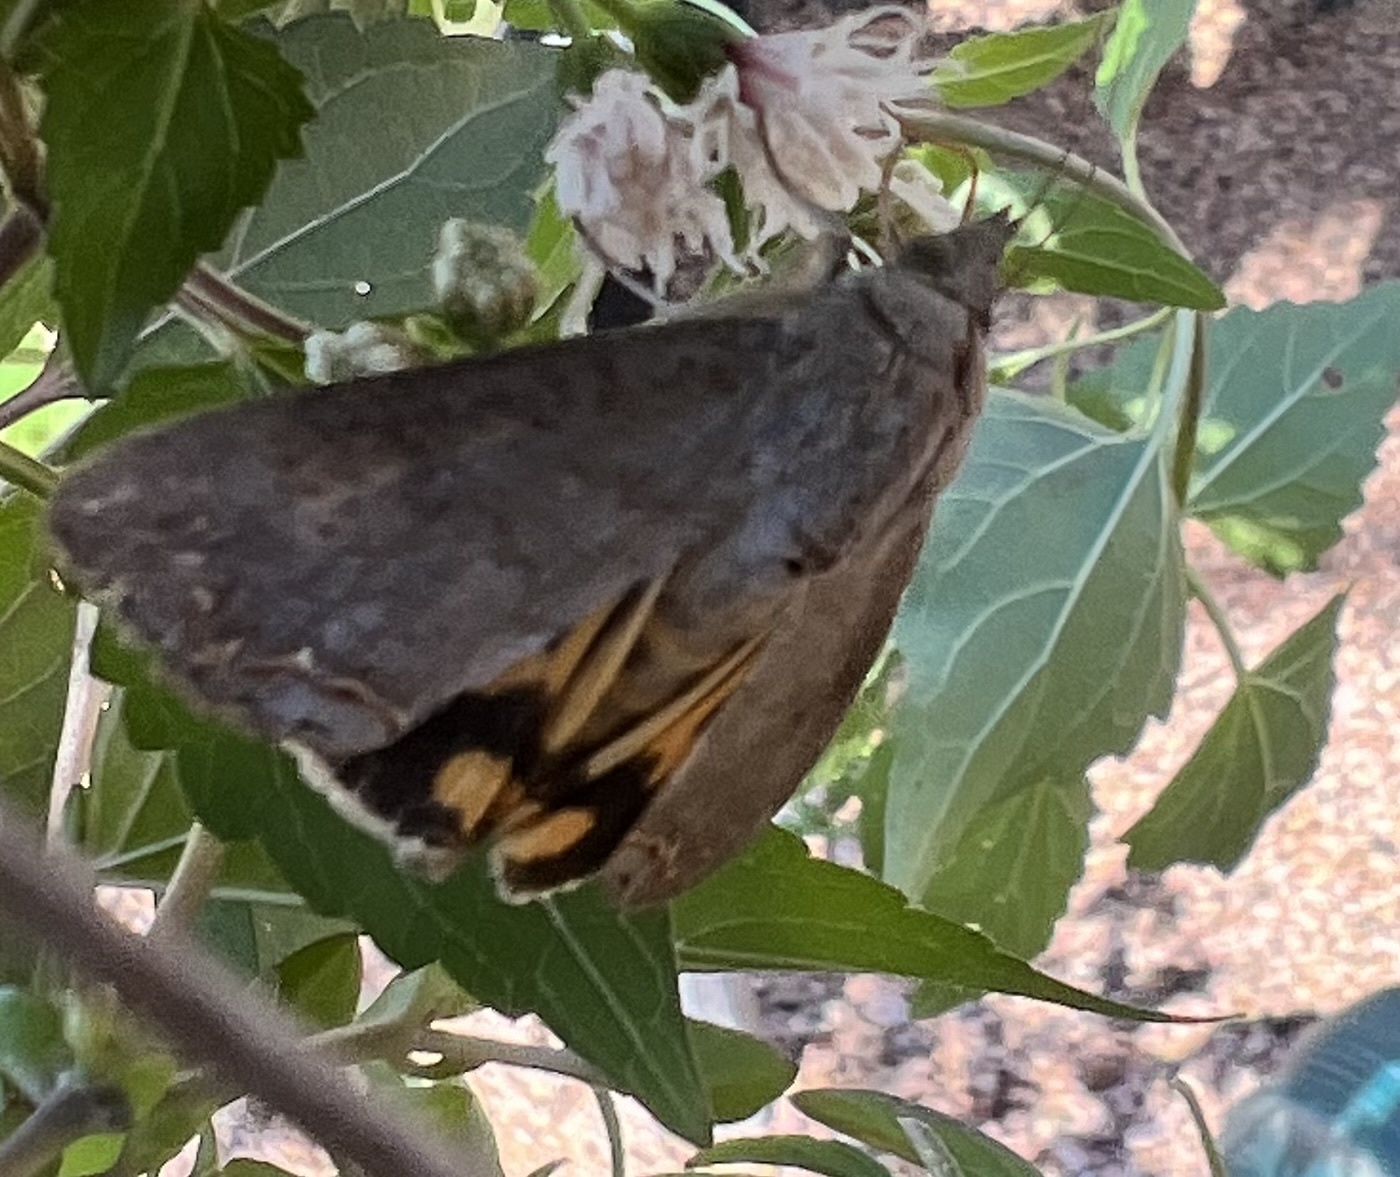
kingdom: Animalia
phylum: Arthropoda
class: Insecta
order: Lepidoptera
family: Erebidae
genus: Hypocala
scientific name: Hypocala andremona
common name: Hypocala moth
